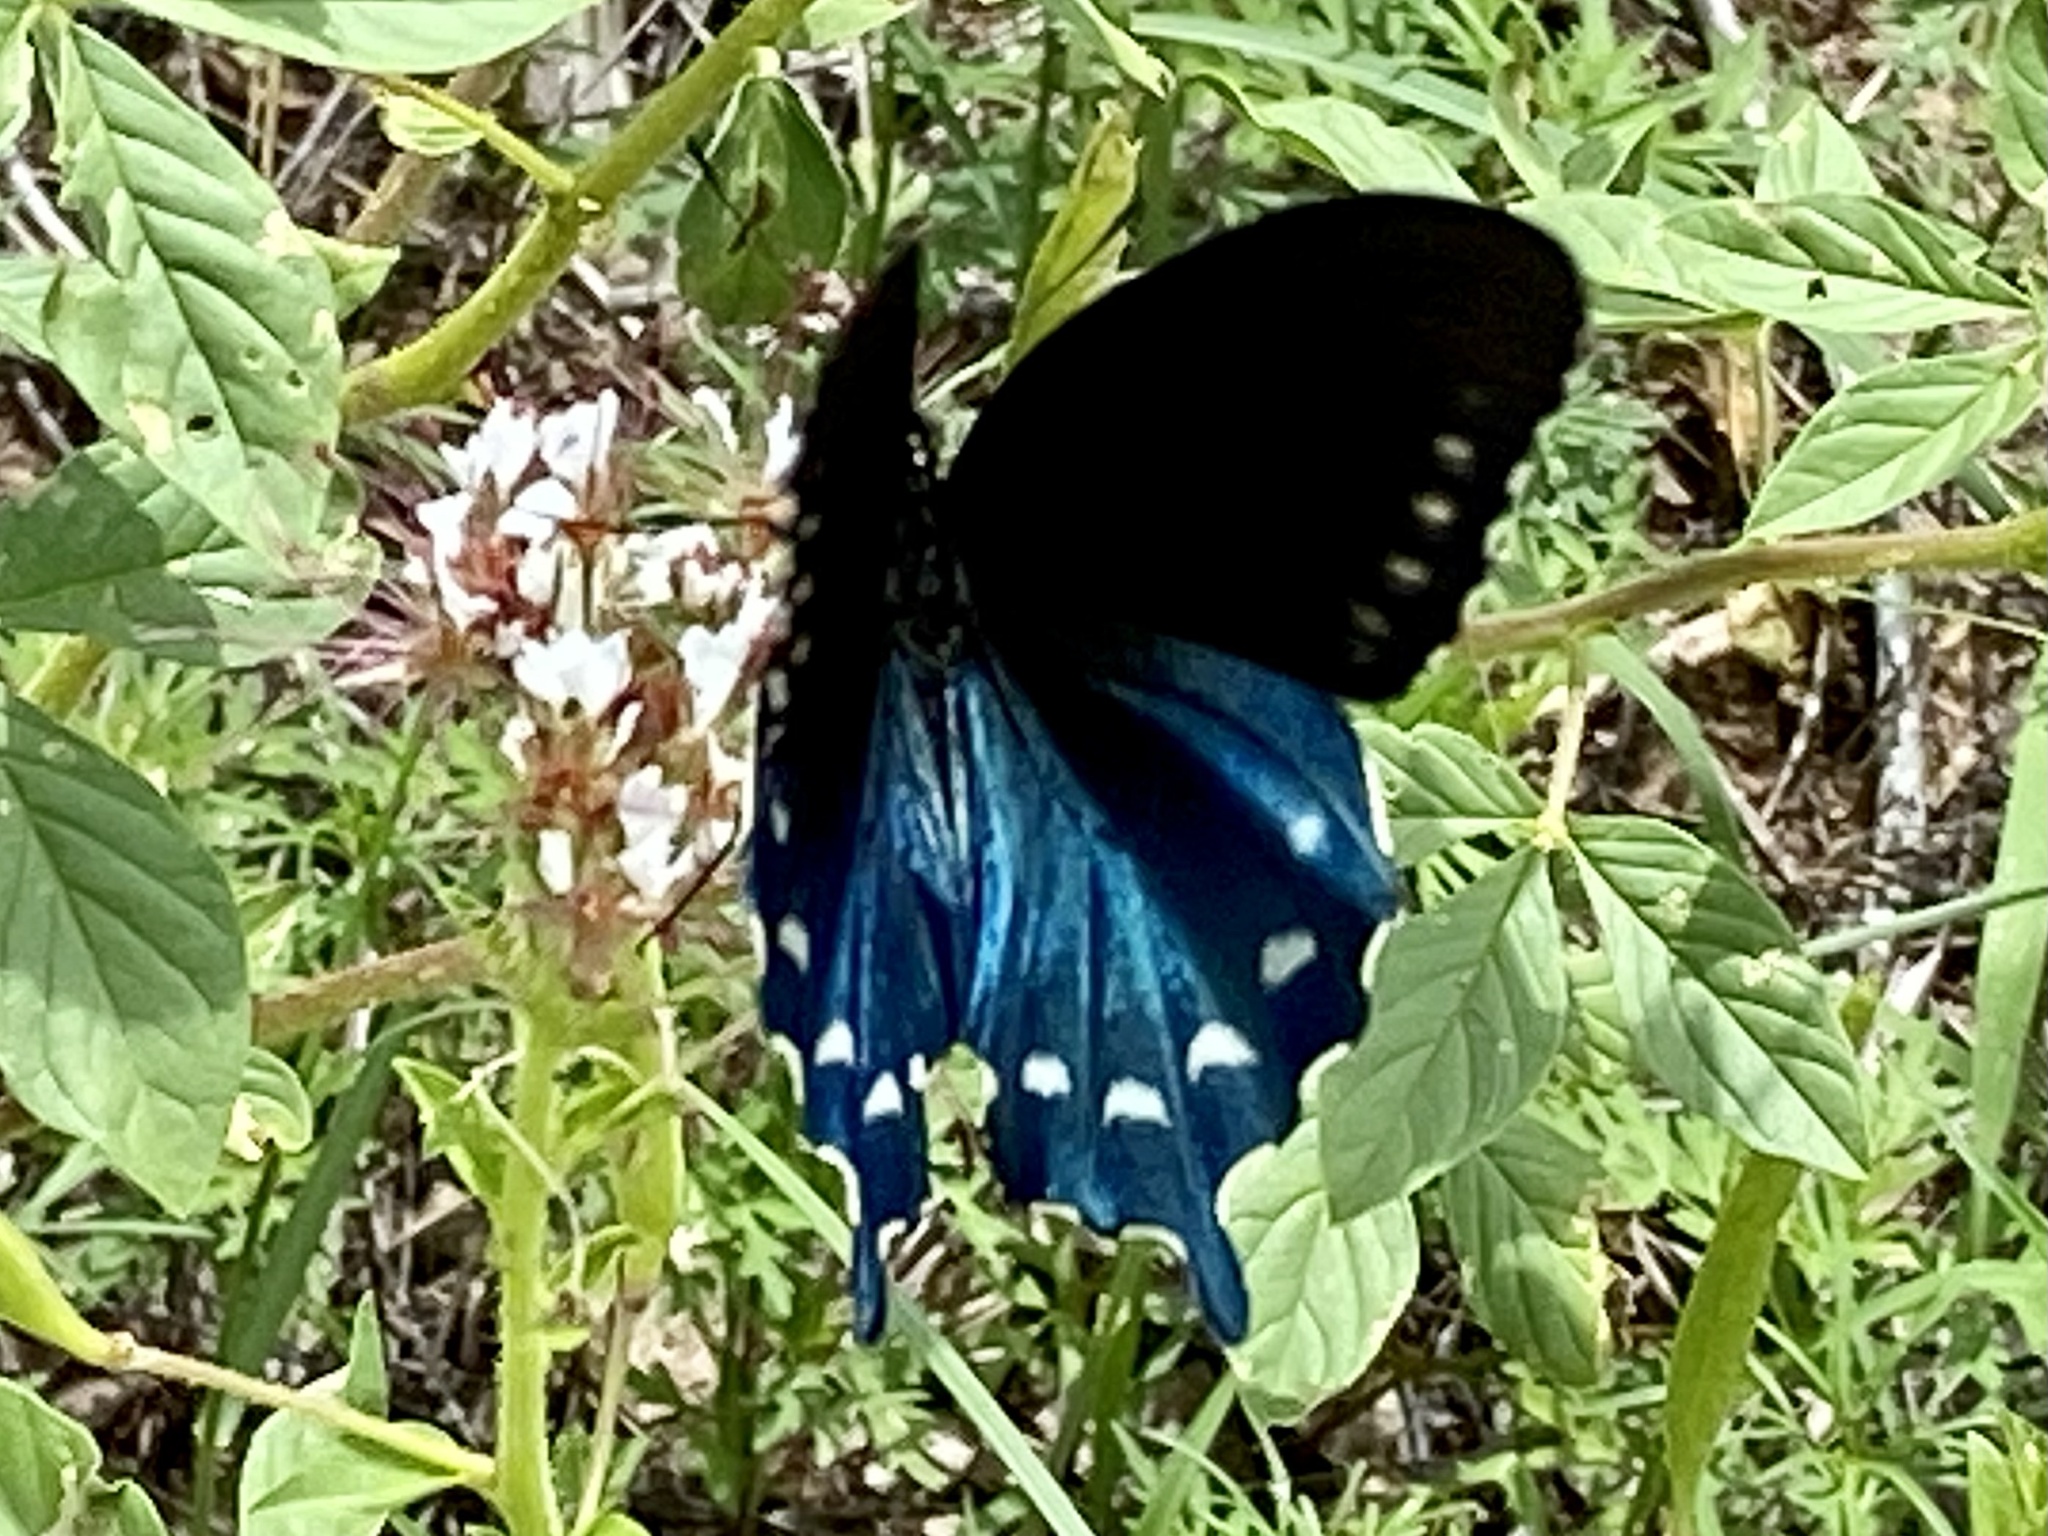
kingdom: Animalia
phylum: Arthropoda
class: Insecta
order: Lepidoptera
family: Papilionidae
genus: Battus
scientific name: Battus philenor
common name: Pipevine swallowtail
